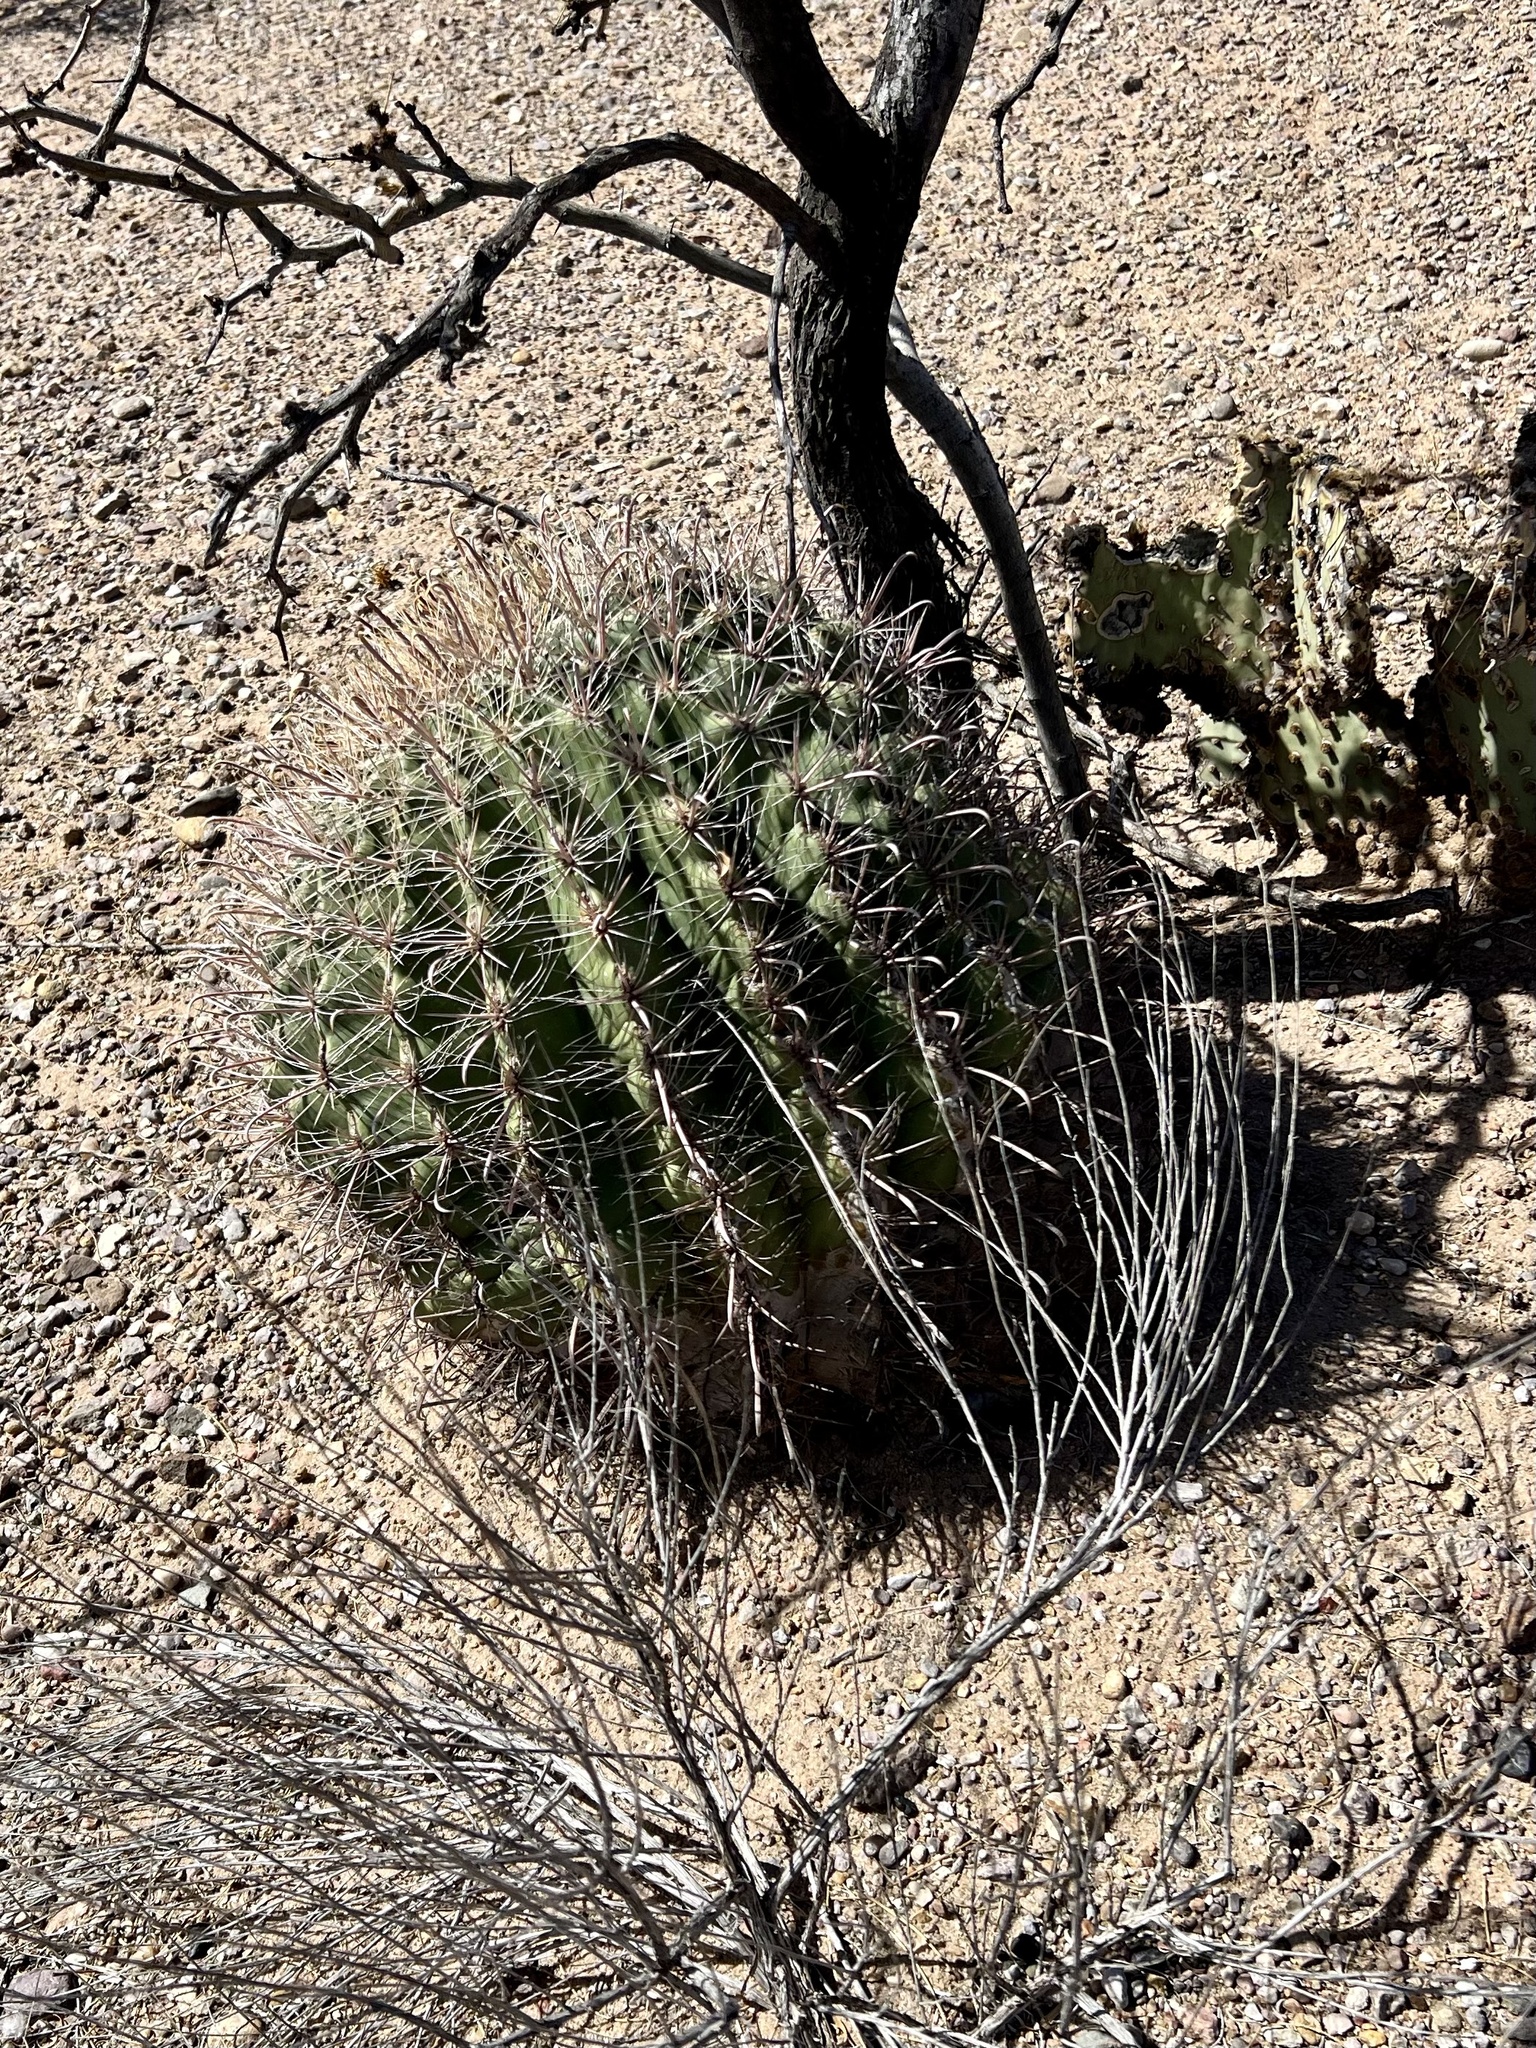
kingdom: Plantae
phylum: Tracheophyta
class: Magnoliopsida
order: Caryophyllales
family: Cactaceae
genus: Ferocactus
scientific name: Ferocactus wislizeni
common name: Candy barrel cactus
